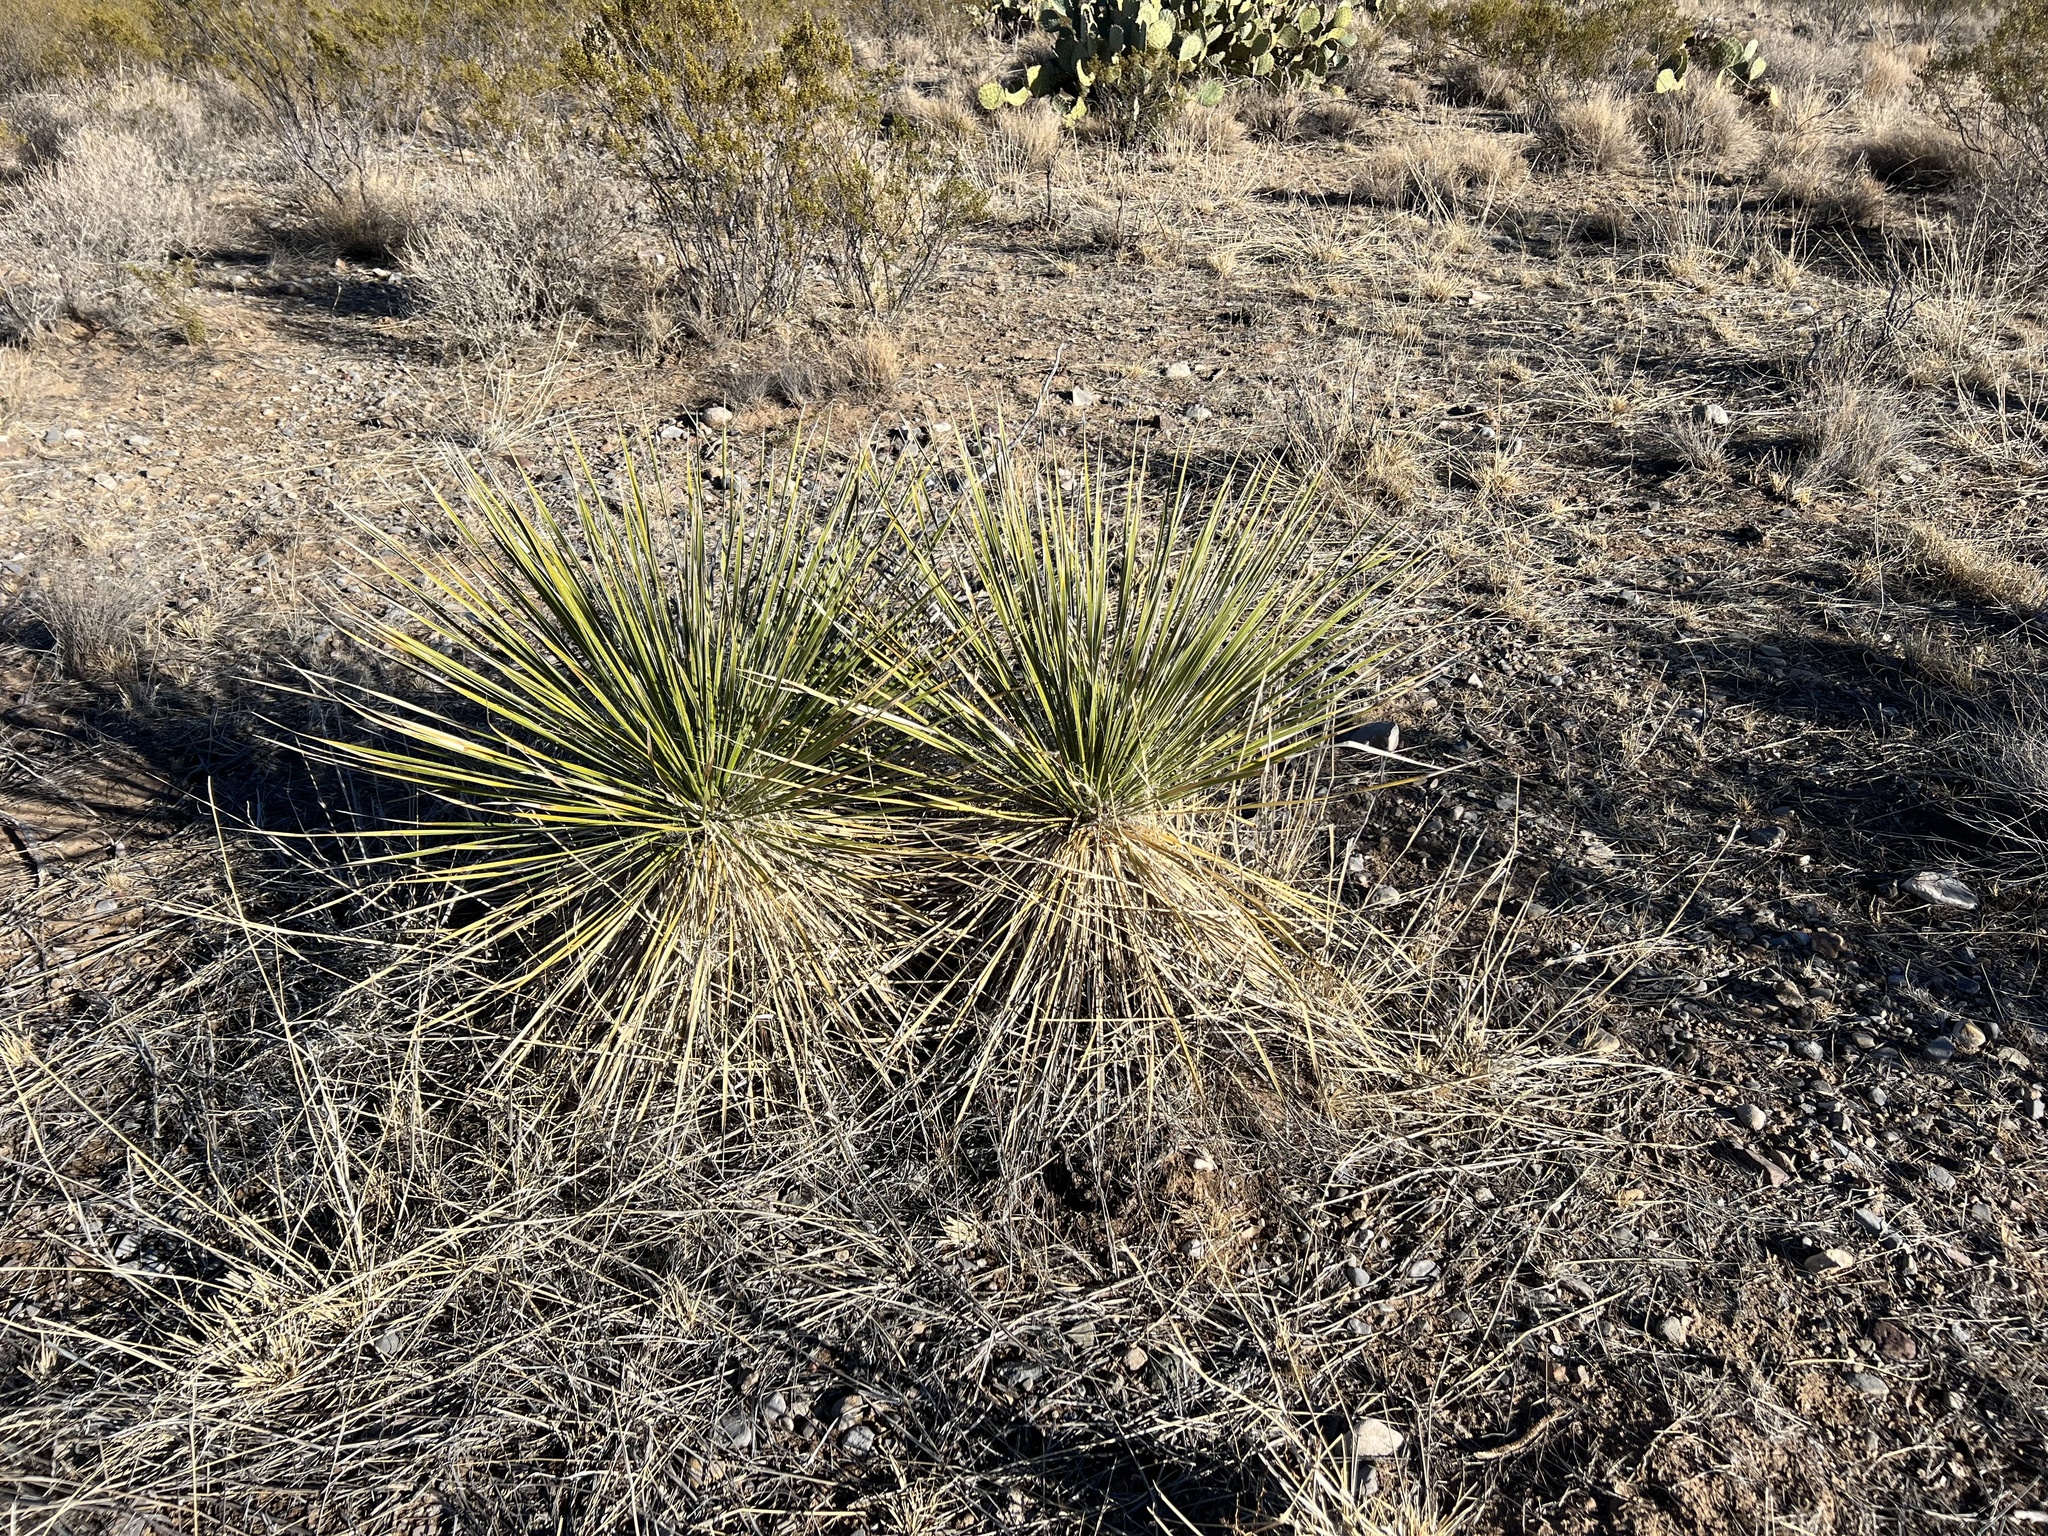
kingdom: Plantae
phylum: Tracheophyta
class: Liliopsida
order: Asparagales
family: Asparagaceae
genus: Yucca
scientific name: Yucca elata
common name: Palmella
